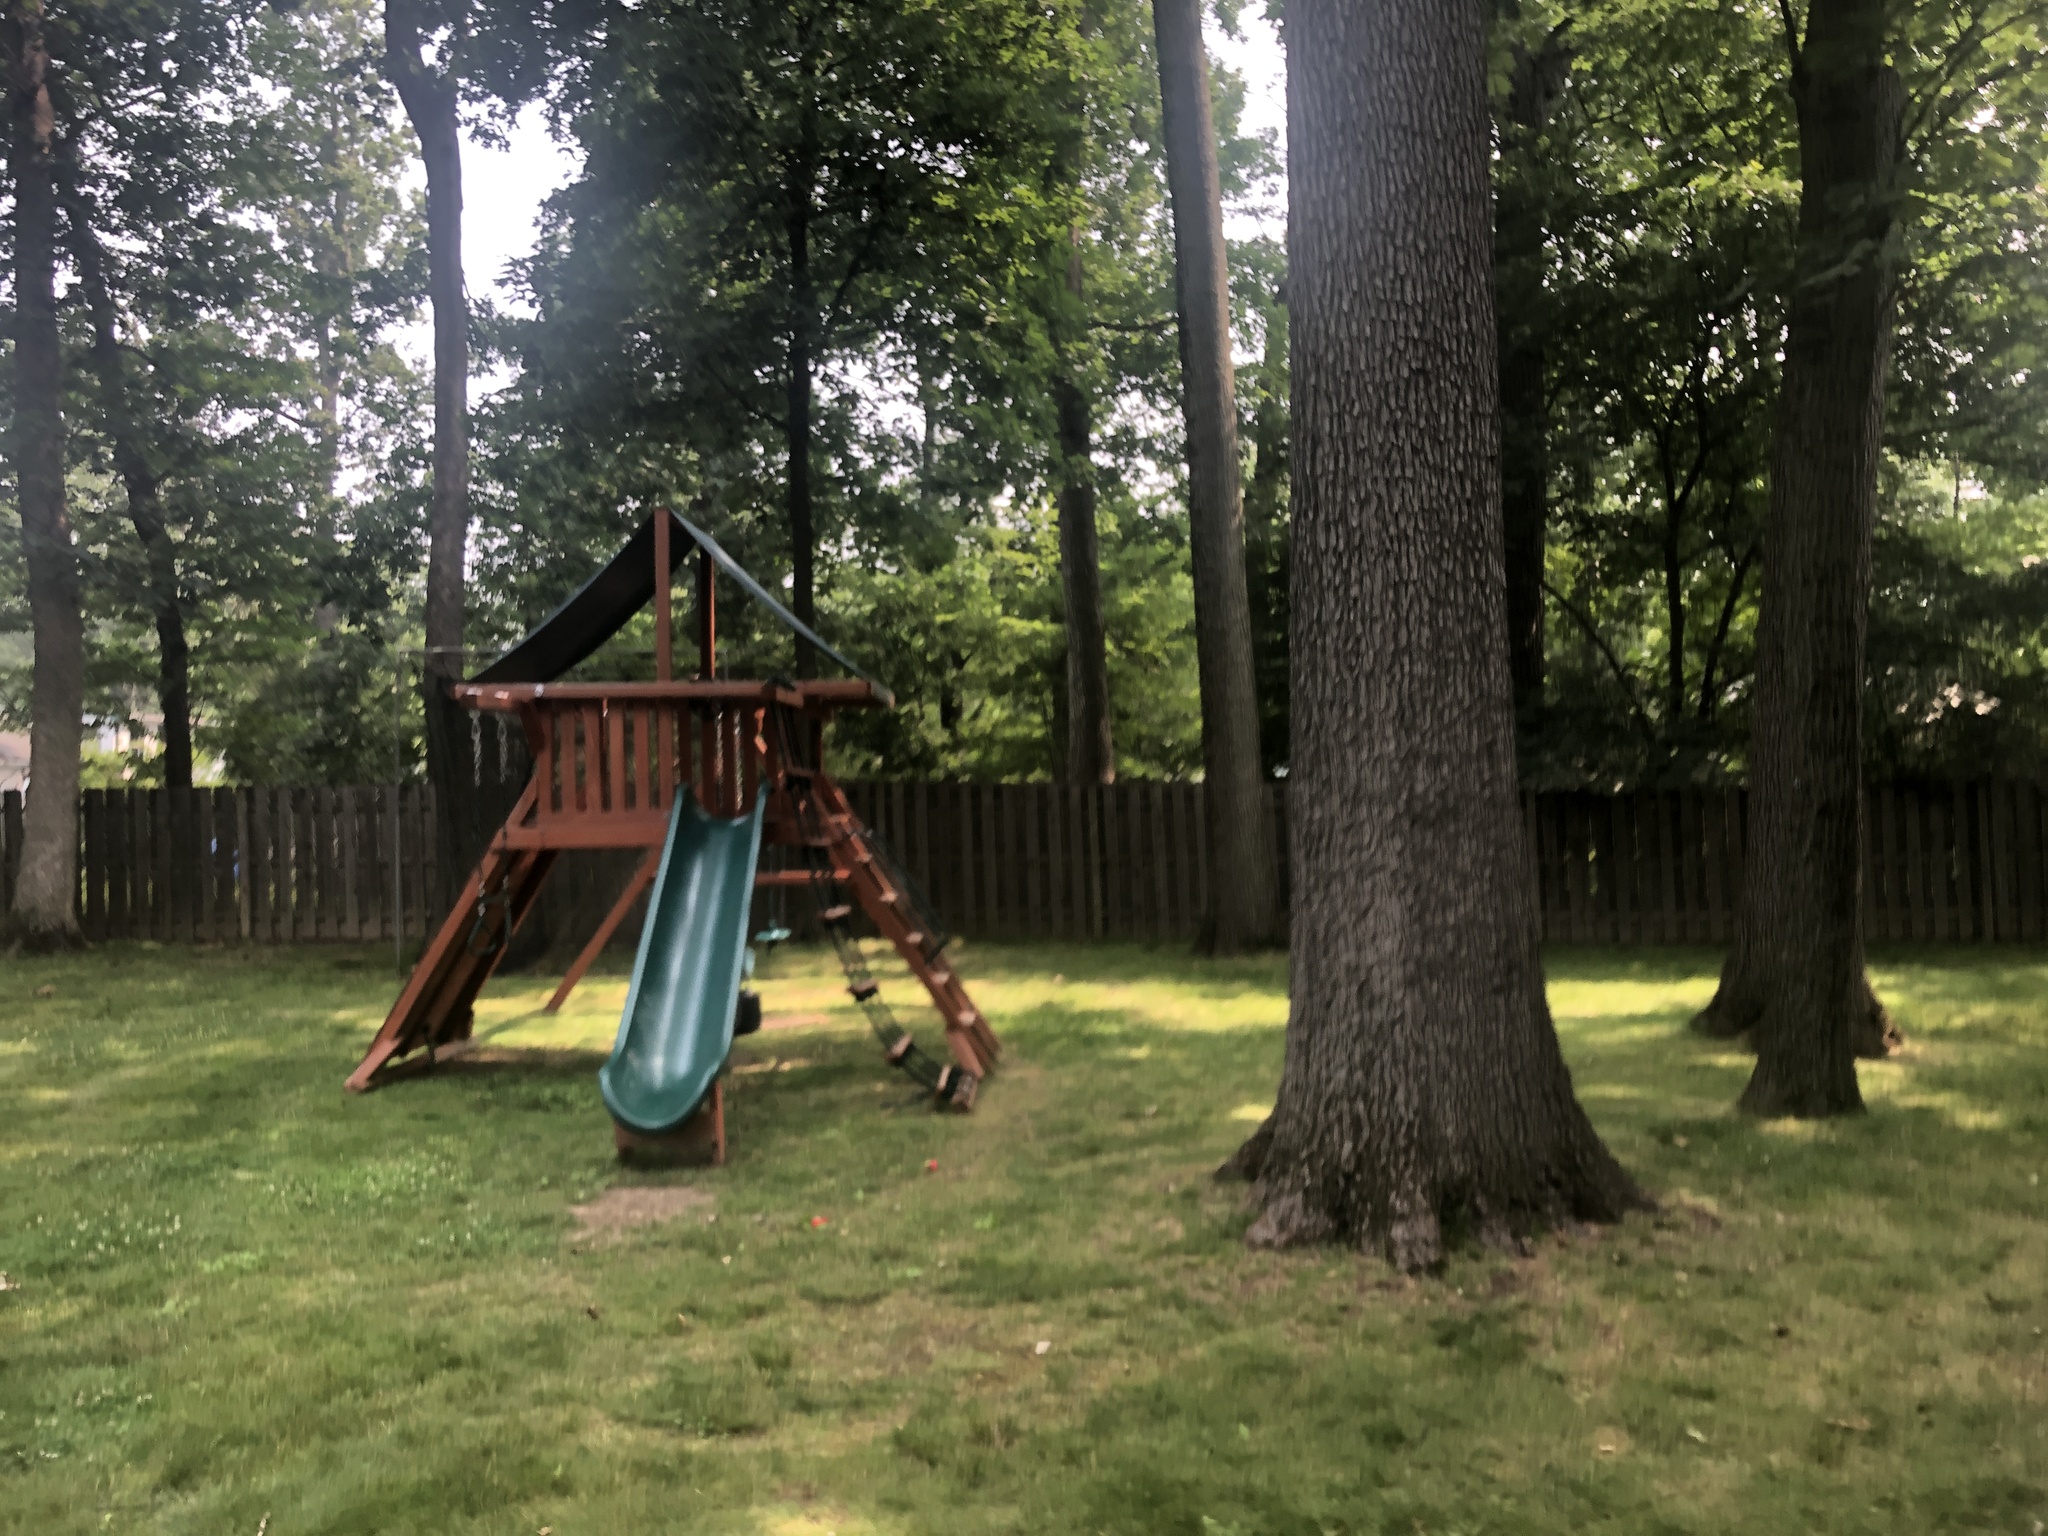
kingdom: Plantae
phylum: Tracheophyta
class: Magnoliopsida
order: Fagales
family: Fagaceae
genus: Quercus
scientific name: Quercus velutina
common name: Black oak
